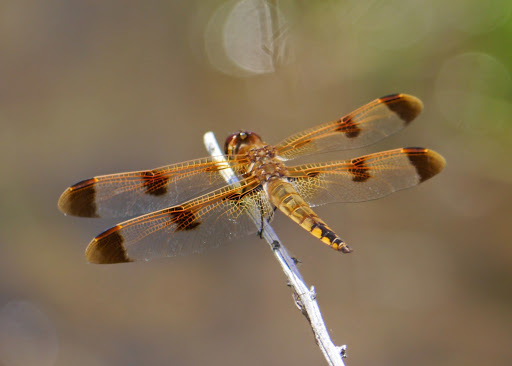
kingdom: Animalia
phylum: Arthropoda
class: Insecta
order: Odonata
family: Libellulidae
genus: Libellula
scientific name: Libellula semifasciata
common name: Painted skimmer
